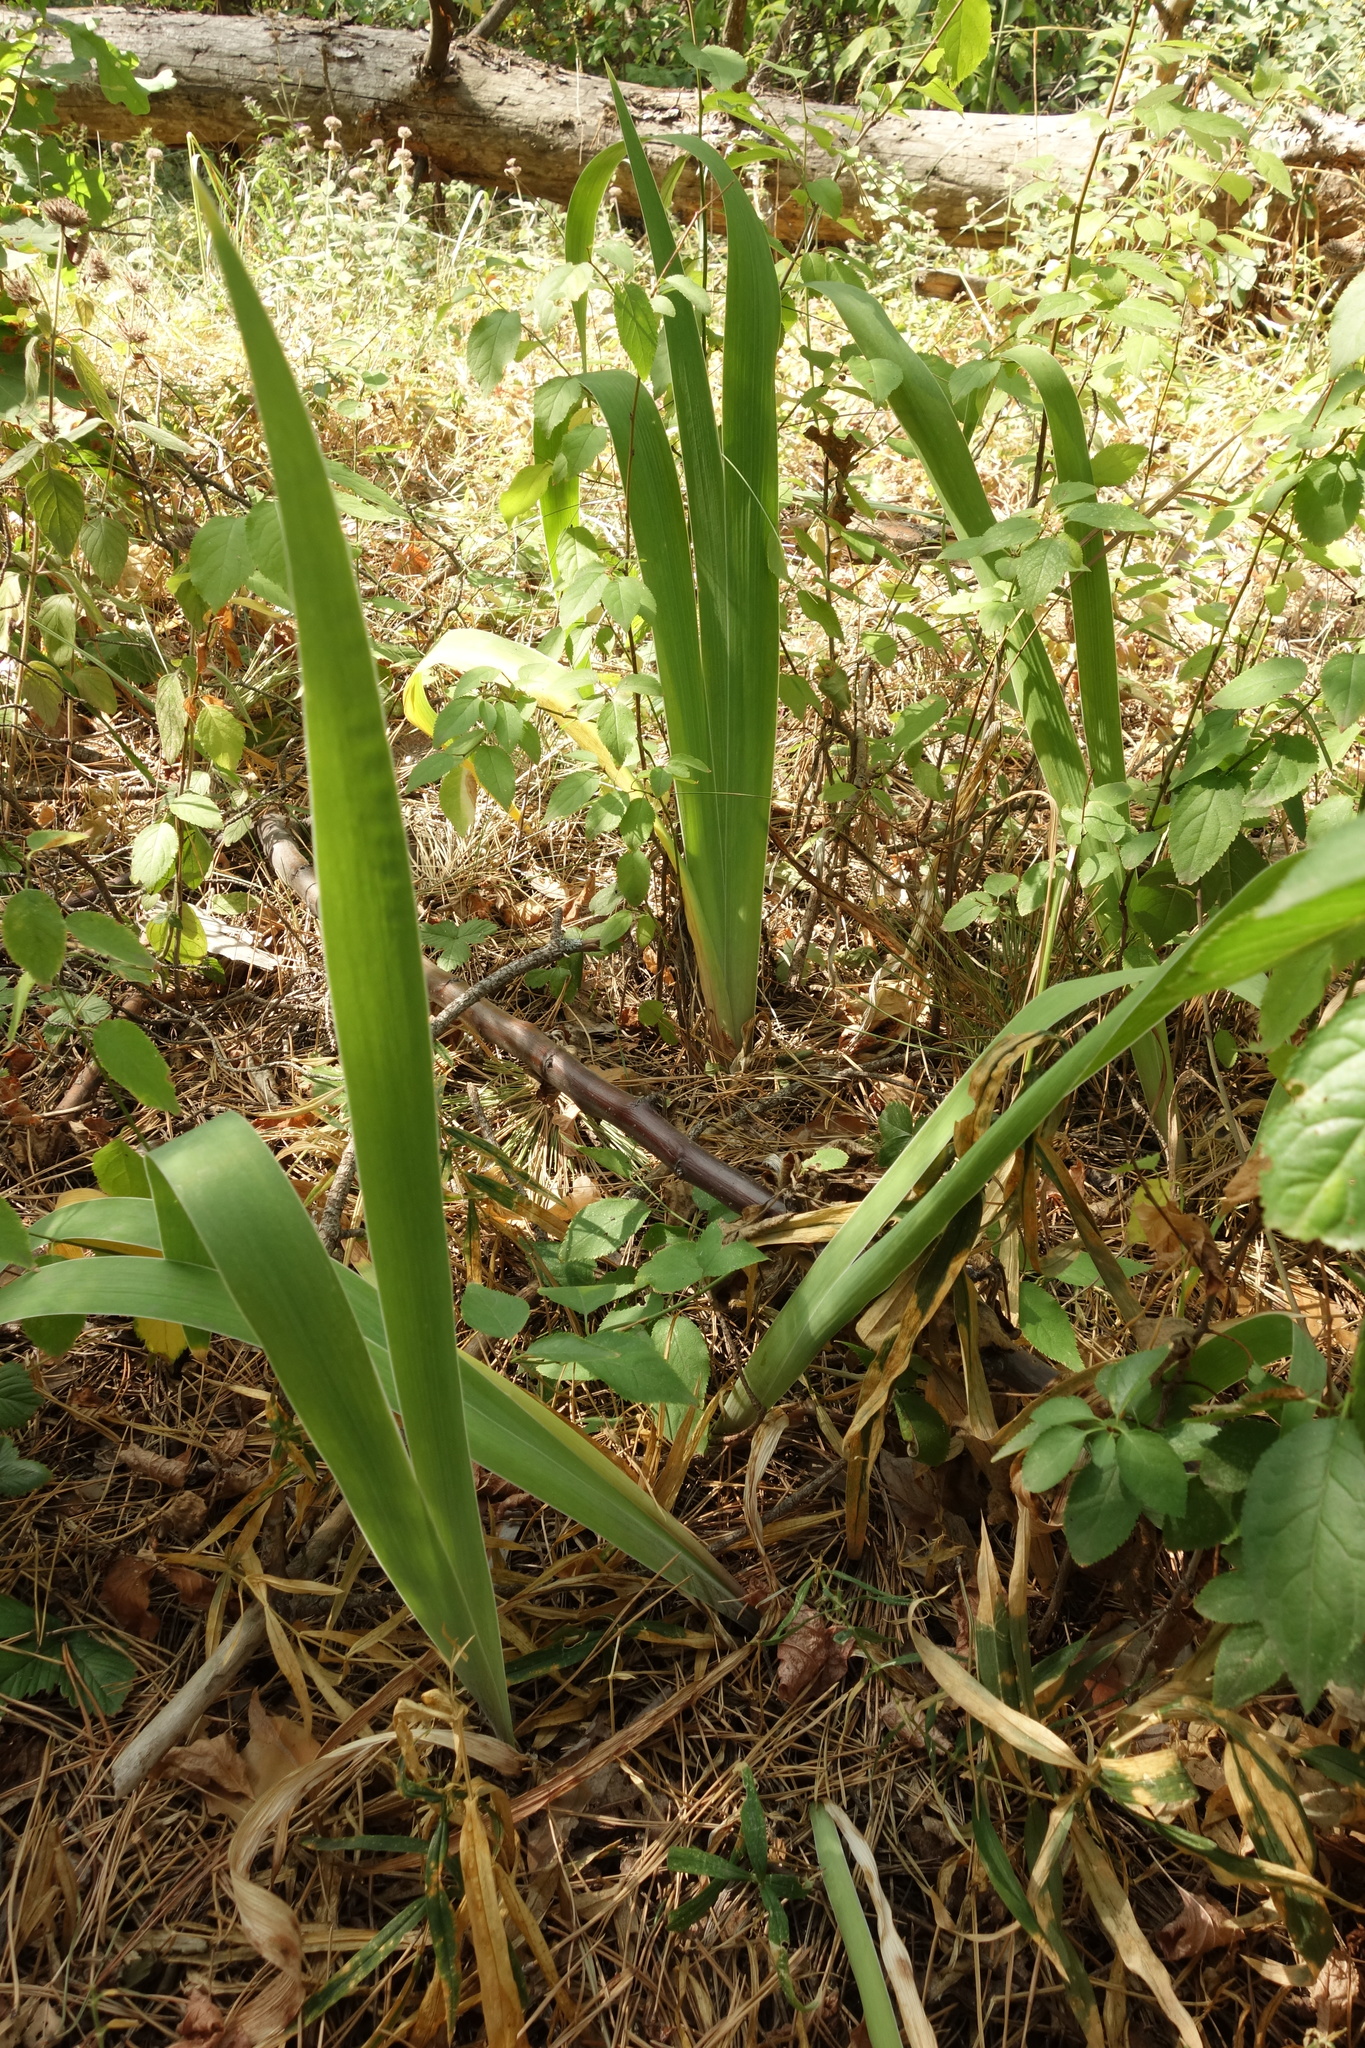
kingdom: Plantae
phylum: Tracheophyta
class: Liliopsida
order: Asparagales
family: Iridaceae
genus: Iris
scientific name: Iris aphylla
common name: Stool iris
